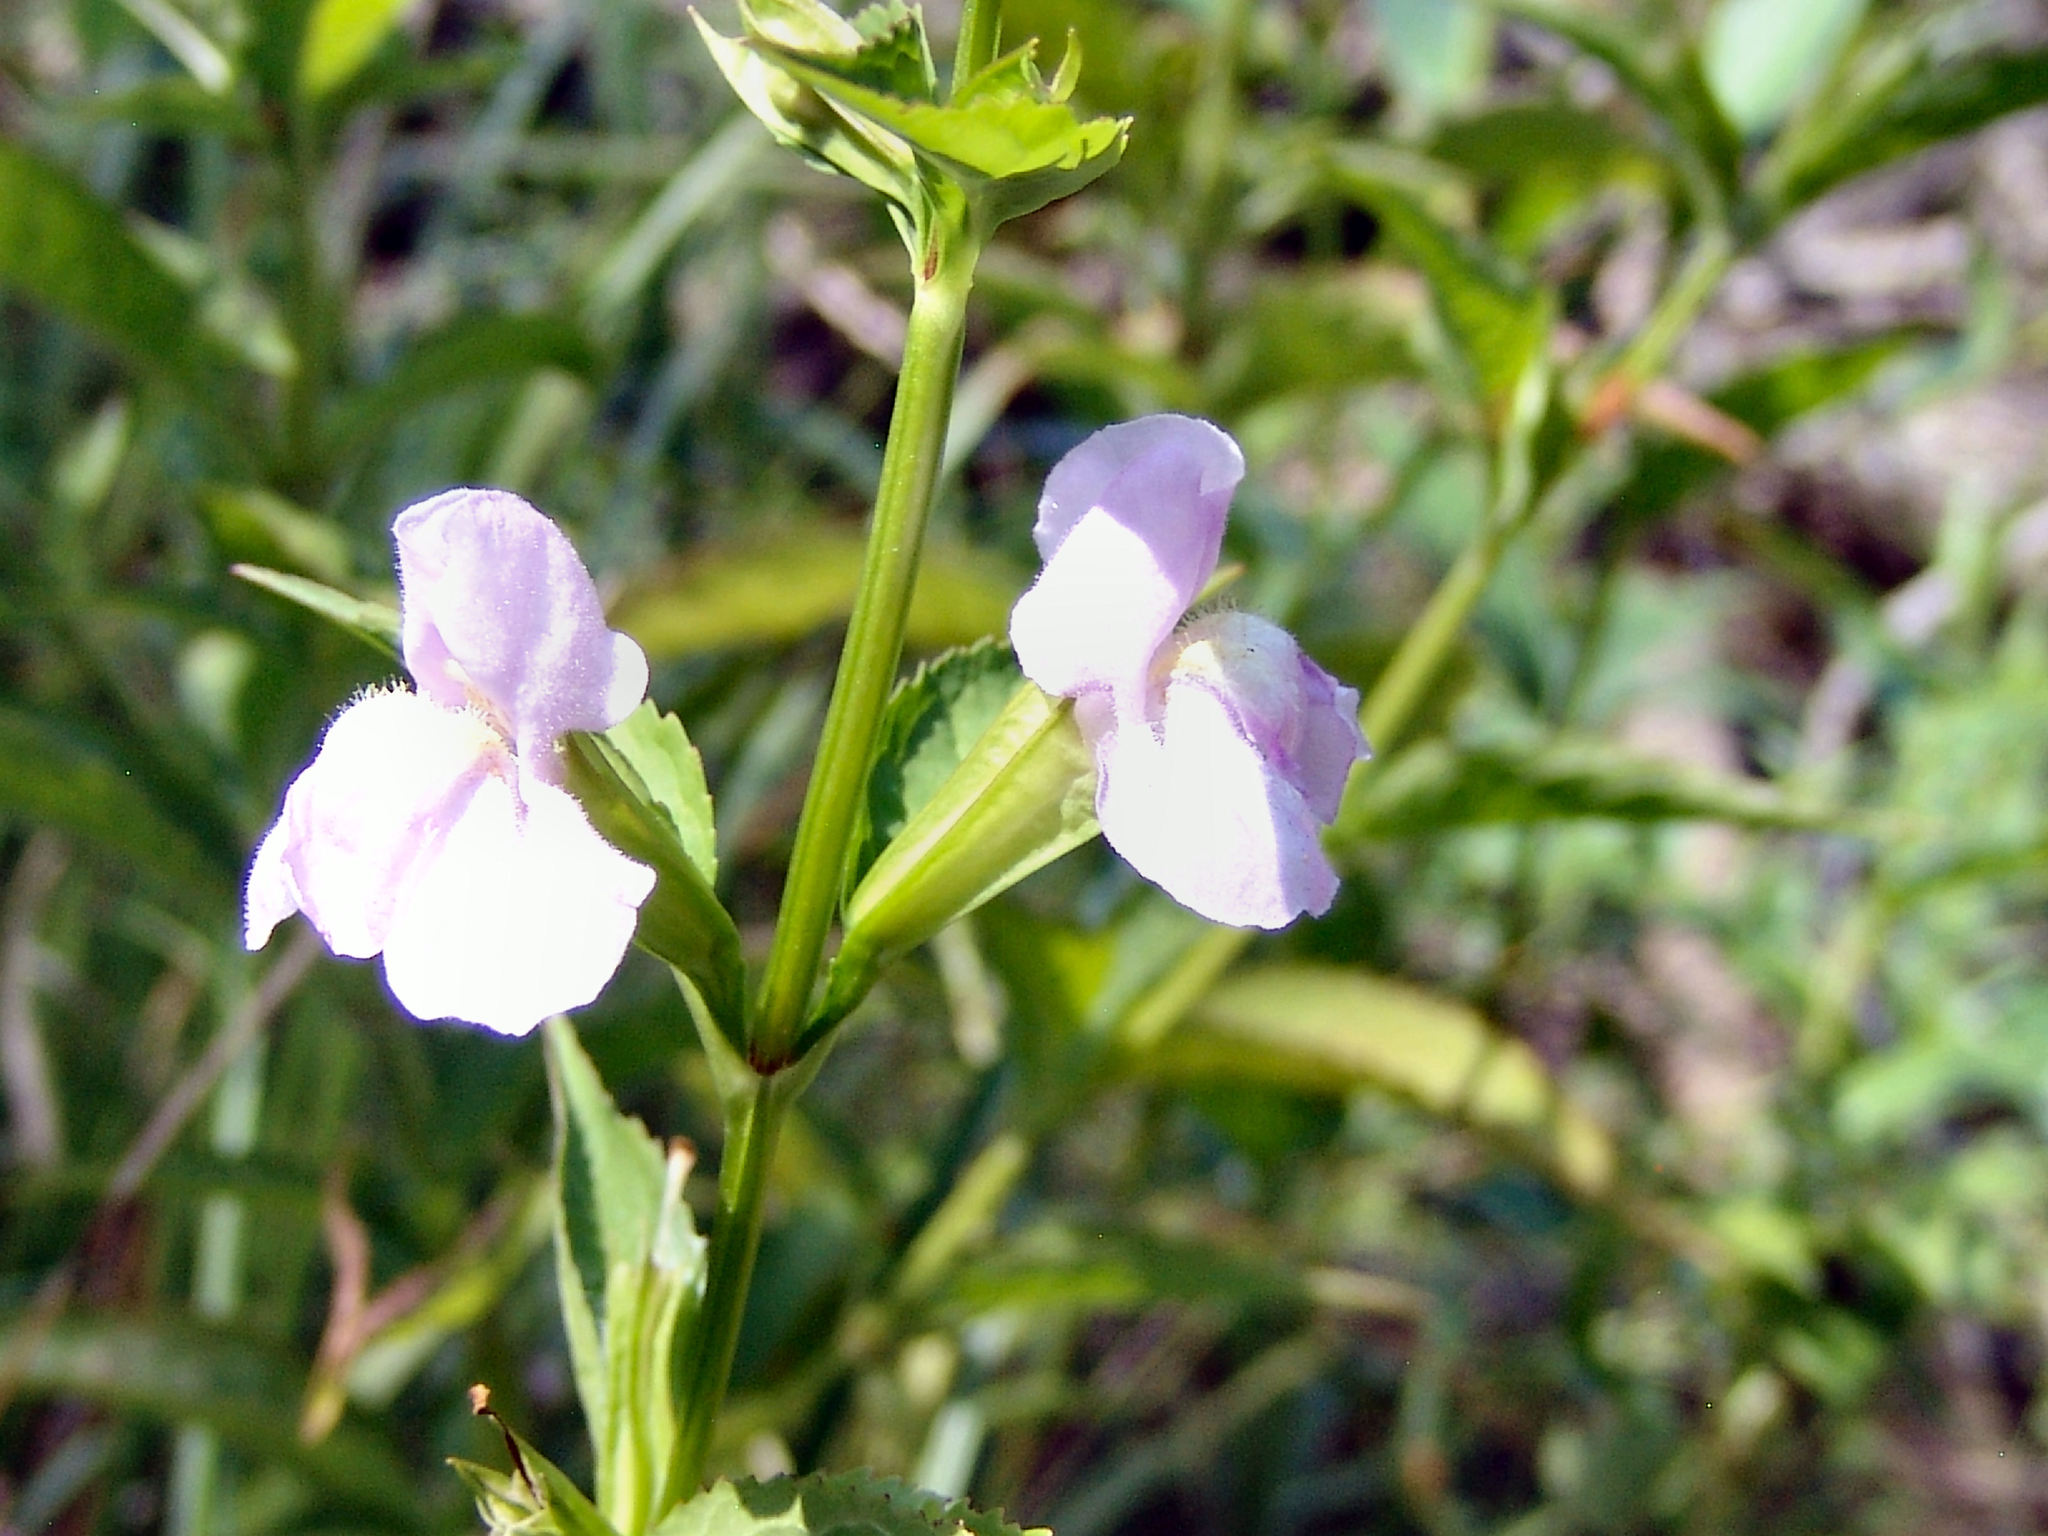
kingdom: Plantae
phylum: Tracheophyta
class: Magnoliopsida
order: Lamiales
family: Phrymaceae
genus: Mimulus
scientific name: Mimulus alatus
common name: Sharp-wing monkey-flower
